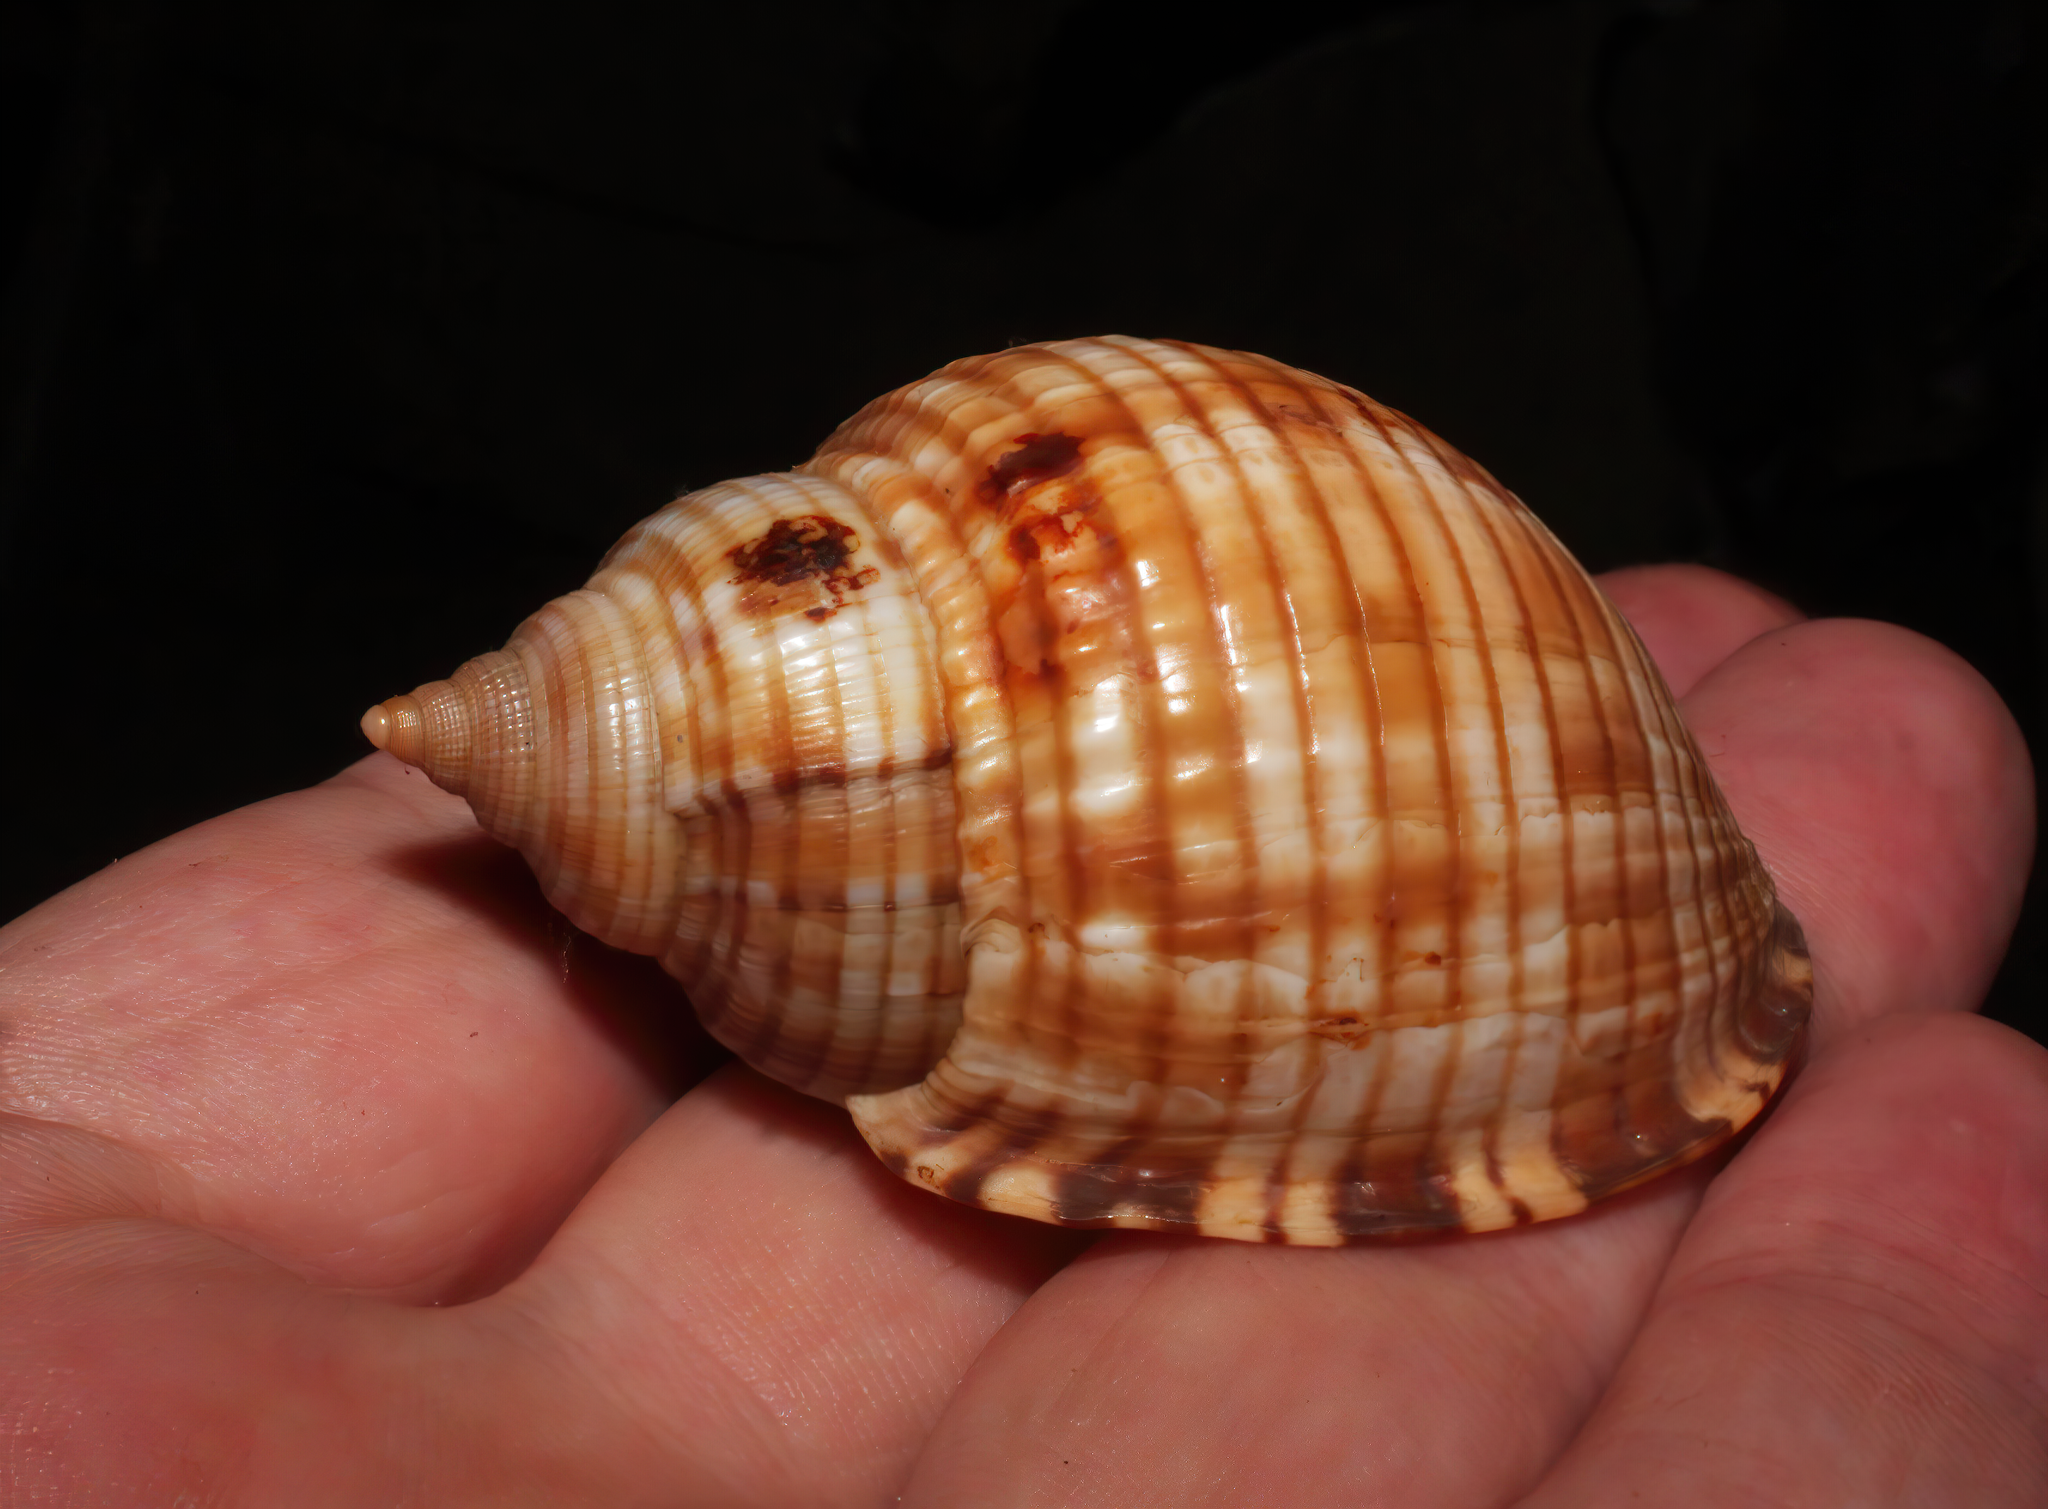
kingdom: Animalia
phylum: Mollusca
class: Gastropoda
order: Littorinimorpha
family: Cassidae
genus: Semicassis
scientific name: Semicassis undulata
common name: Mediterranean bonnet
